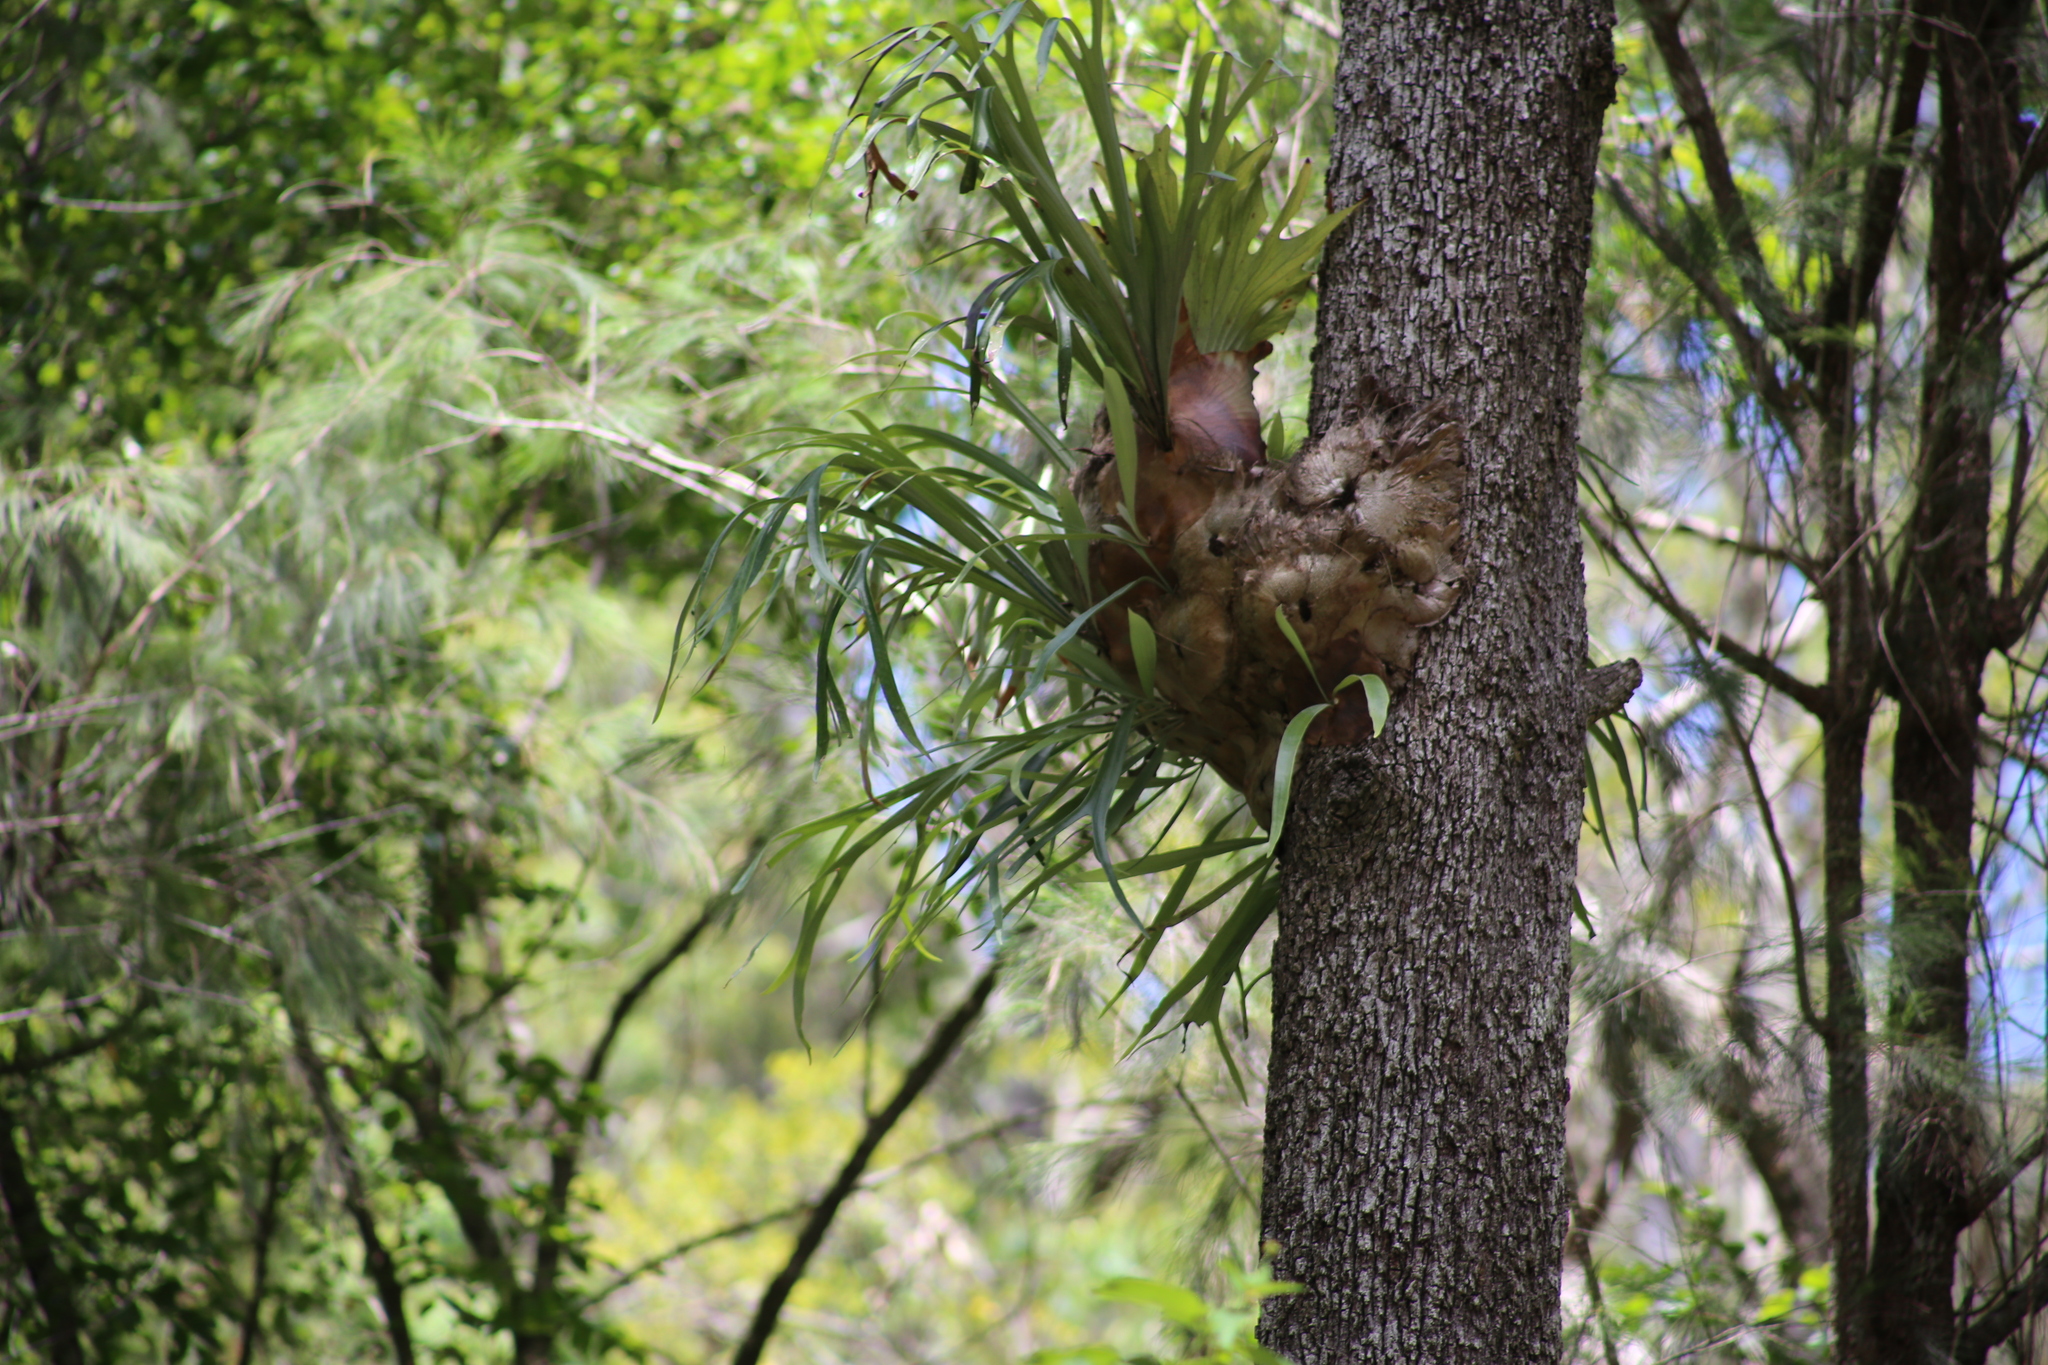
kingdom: Plantae
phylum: Tracheophyta
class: Polypodiopsida
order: Polypodiales
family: Polypodiaceae
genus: Platycerium
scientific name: Platycerium bifurcatum
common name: Elkhorn fern
